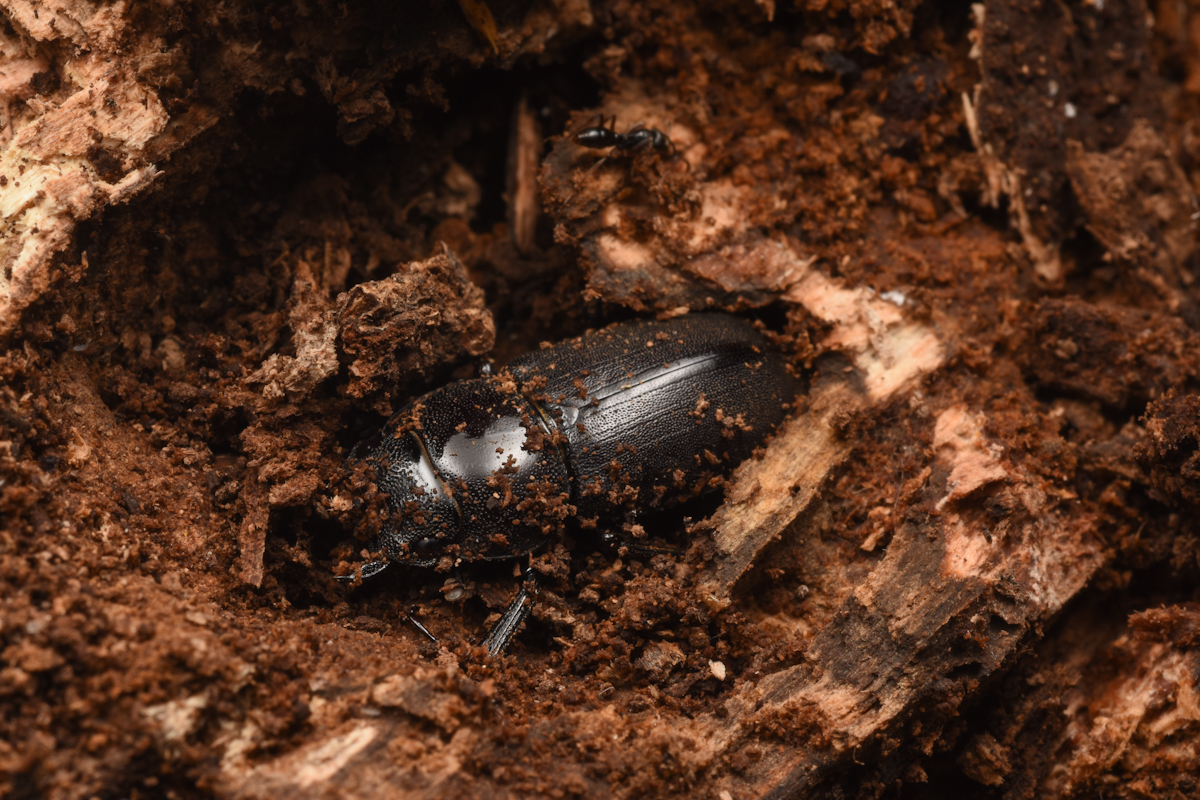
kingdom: Animalia
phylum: Arthropoda
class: Insecta
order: Coleoptera
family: Lucanidae
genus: Dorcus
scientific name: Dorcus rectus
